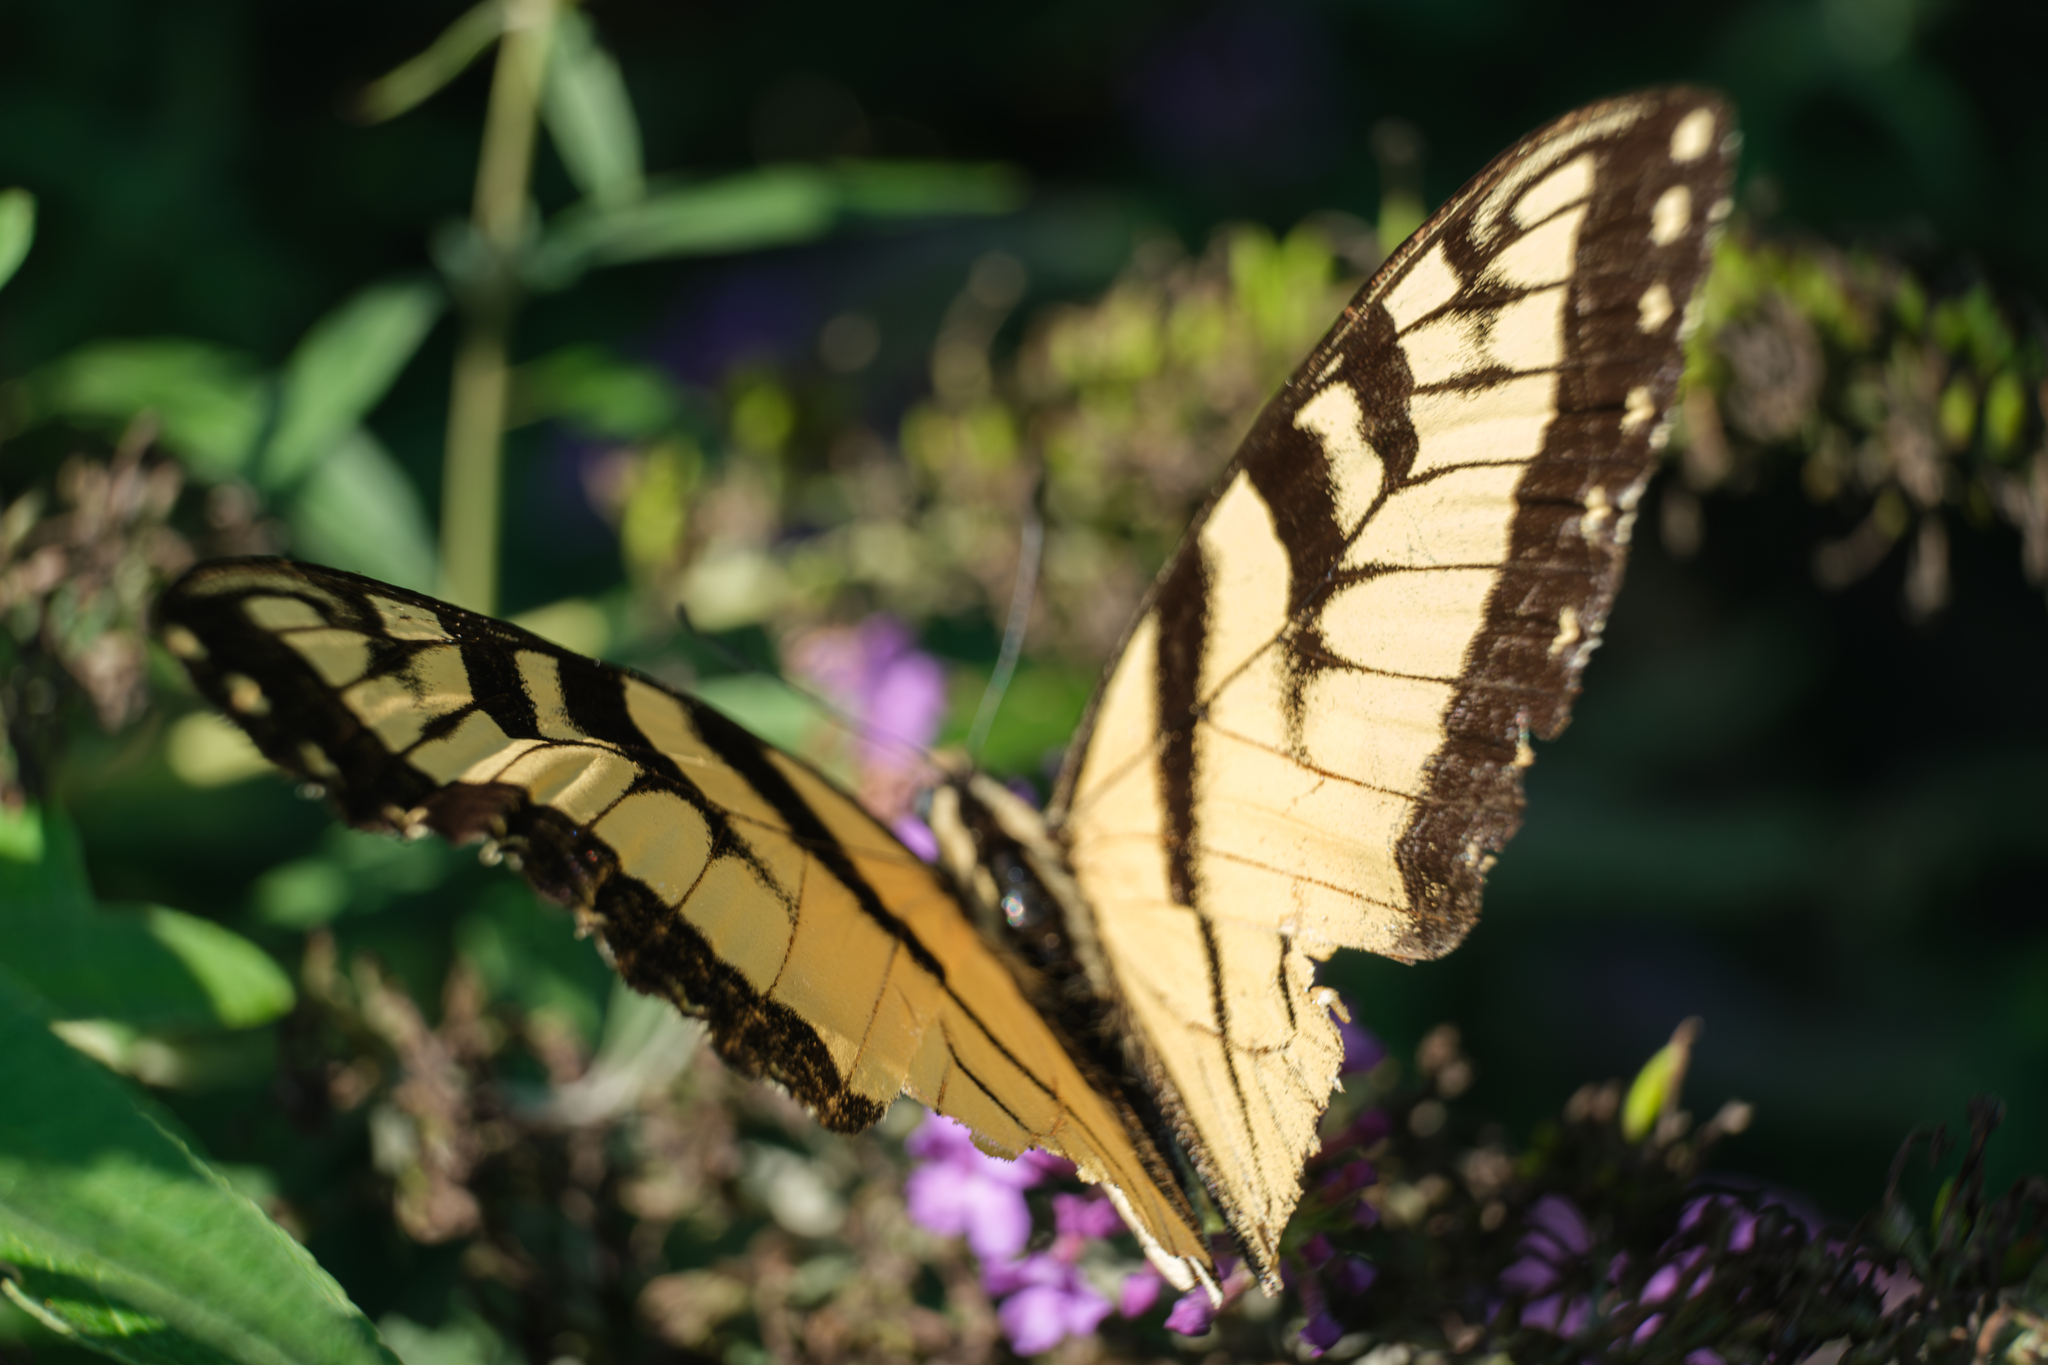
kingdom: Animalia
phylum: Arthropoda
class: Insecta
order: Lepidoptera
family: Papilionidae
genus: Papilio
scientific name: Papilio glaucus
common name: Tiger swallowtail
